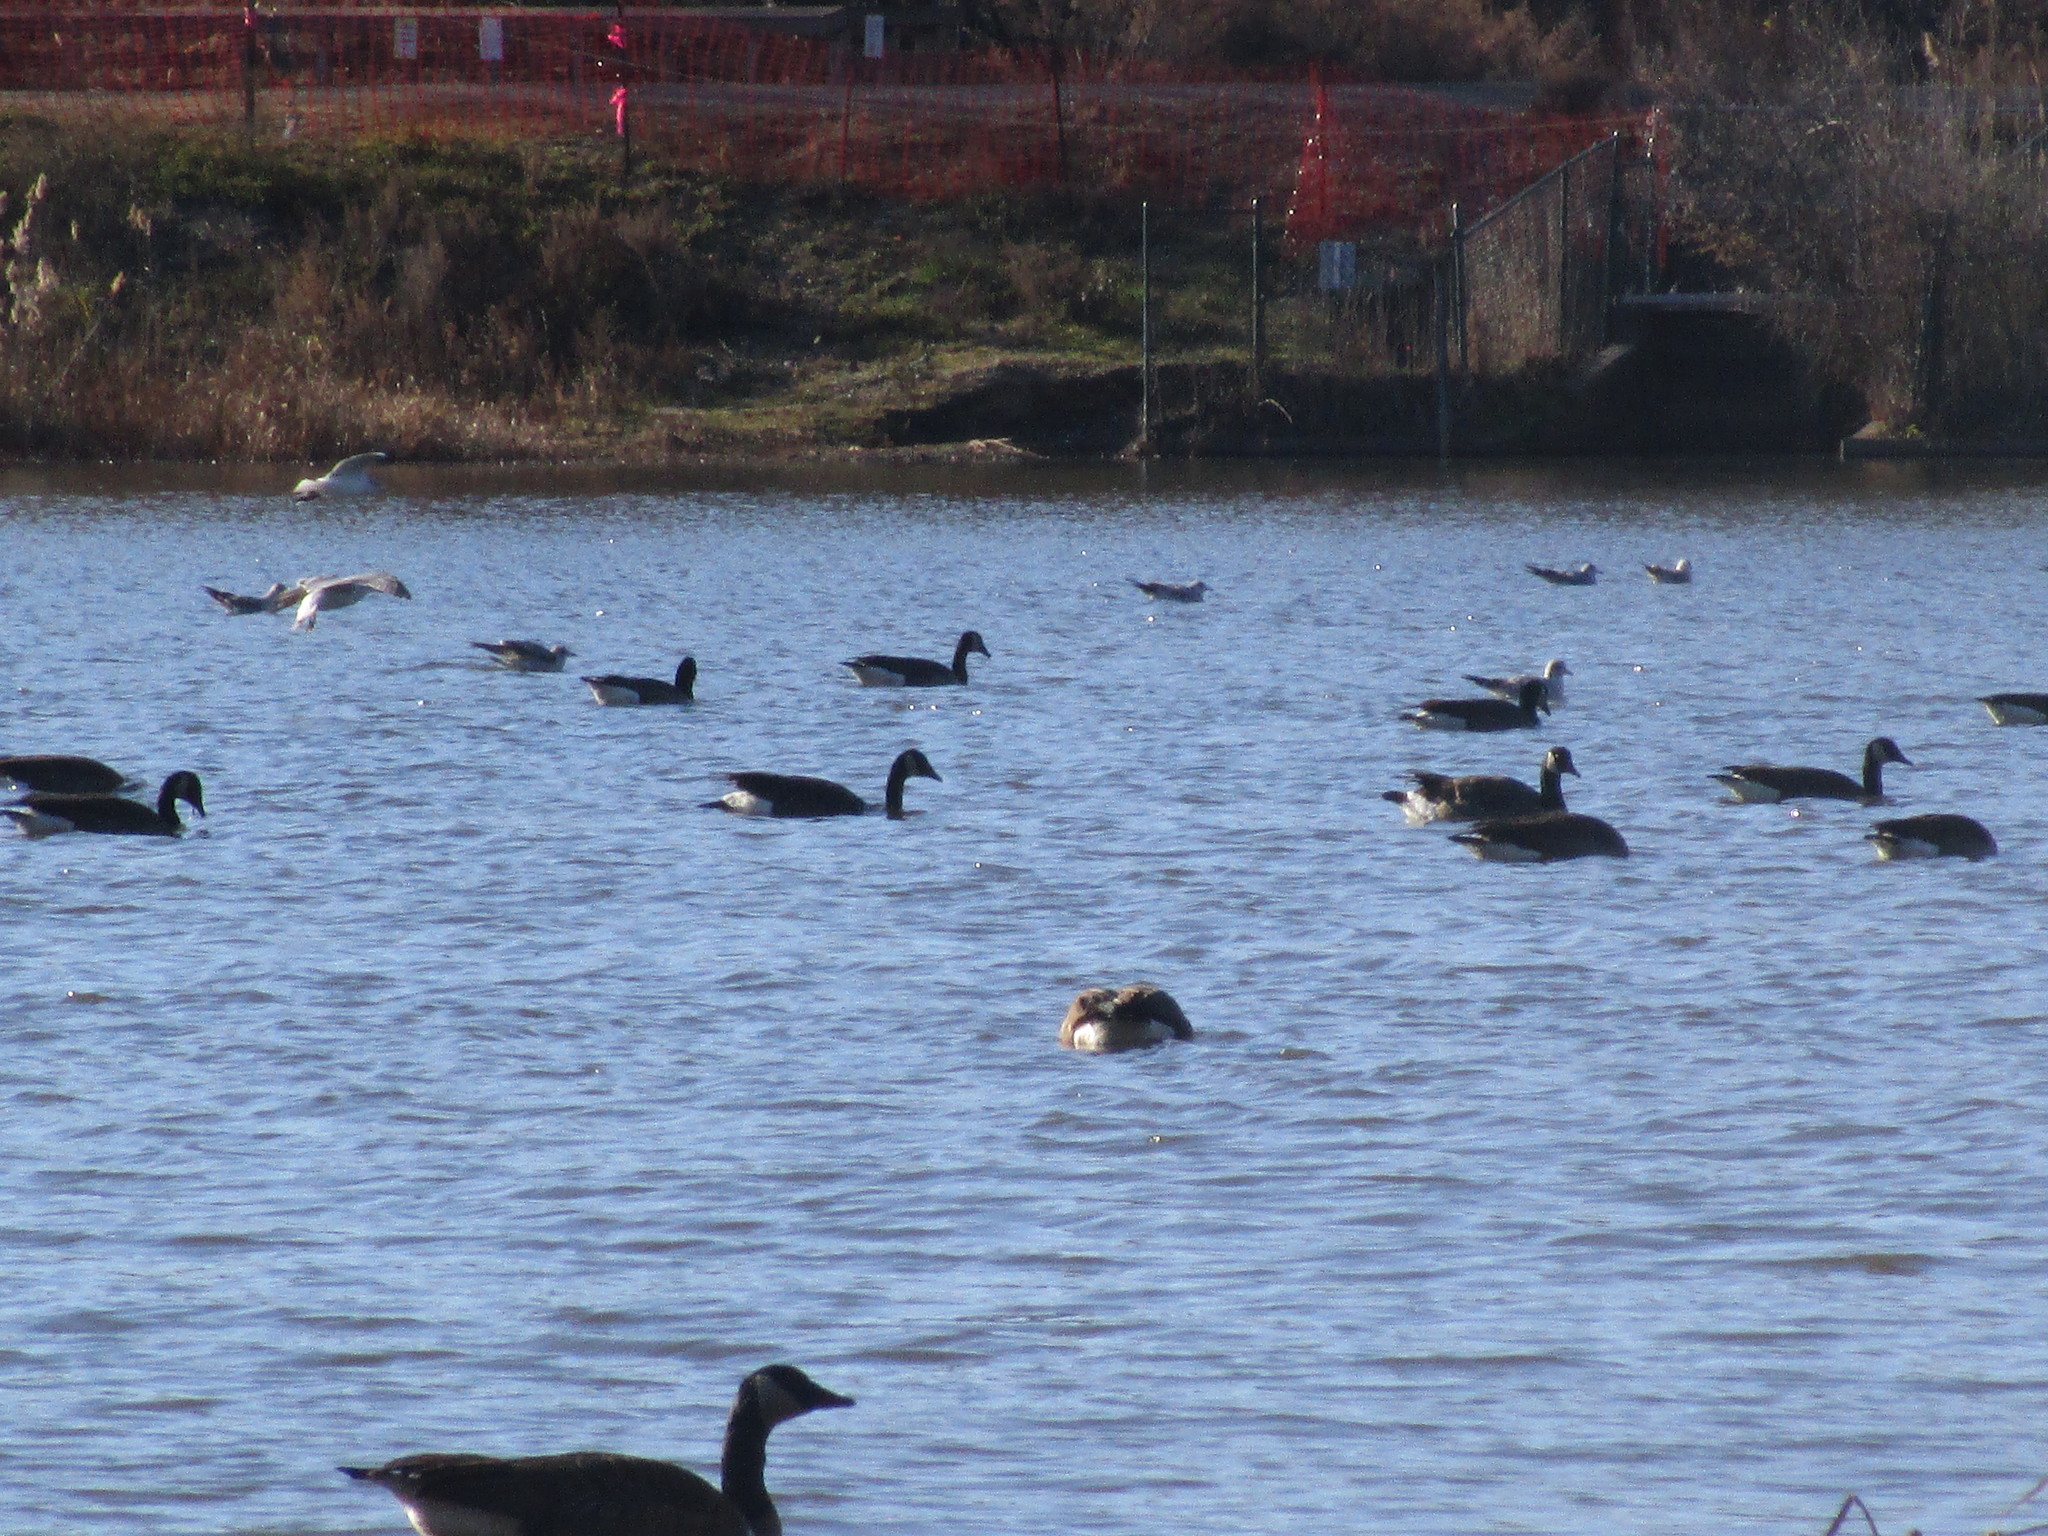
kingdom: Animalia
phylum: Chordata
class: Aves
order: Anseriformes
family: Anatidae
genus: Branta
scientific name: Branta canadensis
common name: Canada goose
